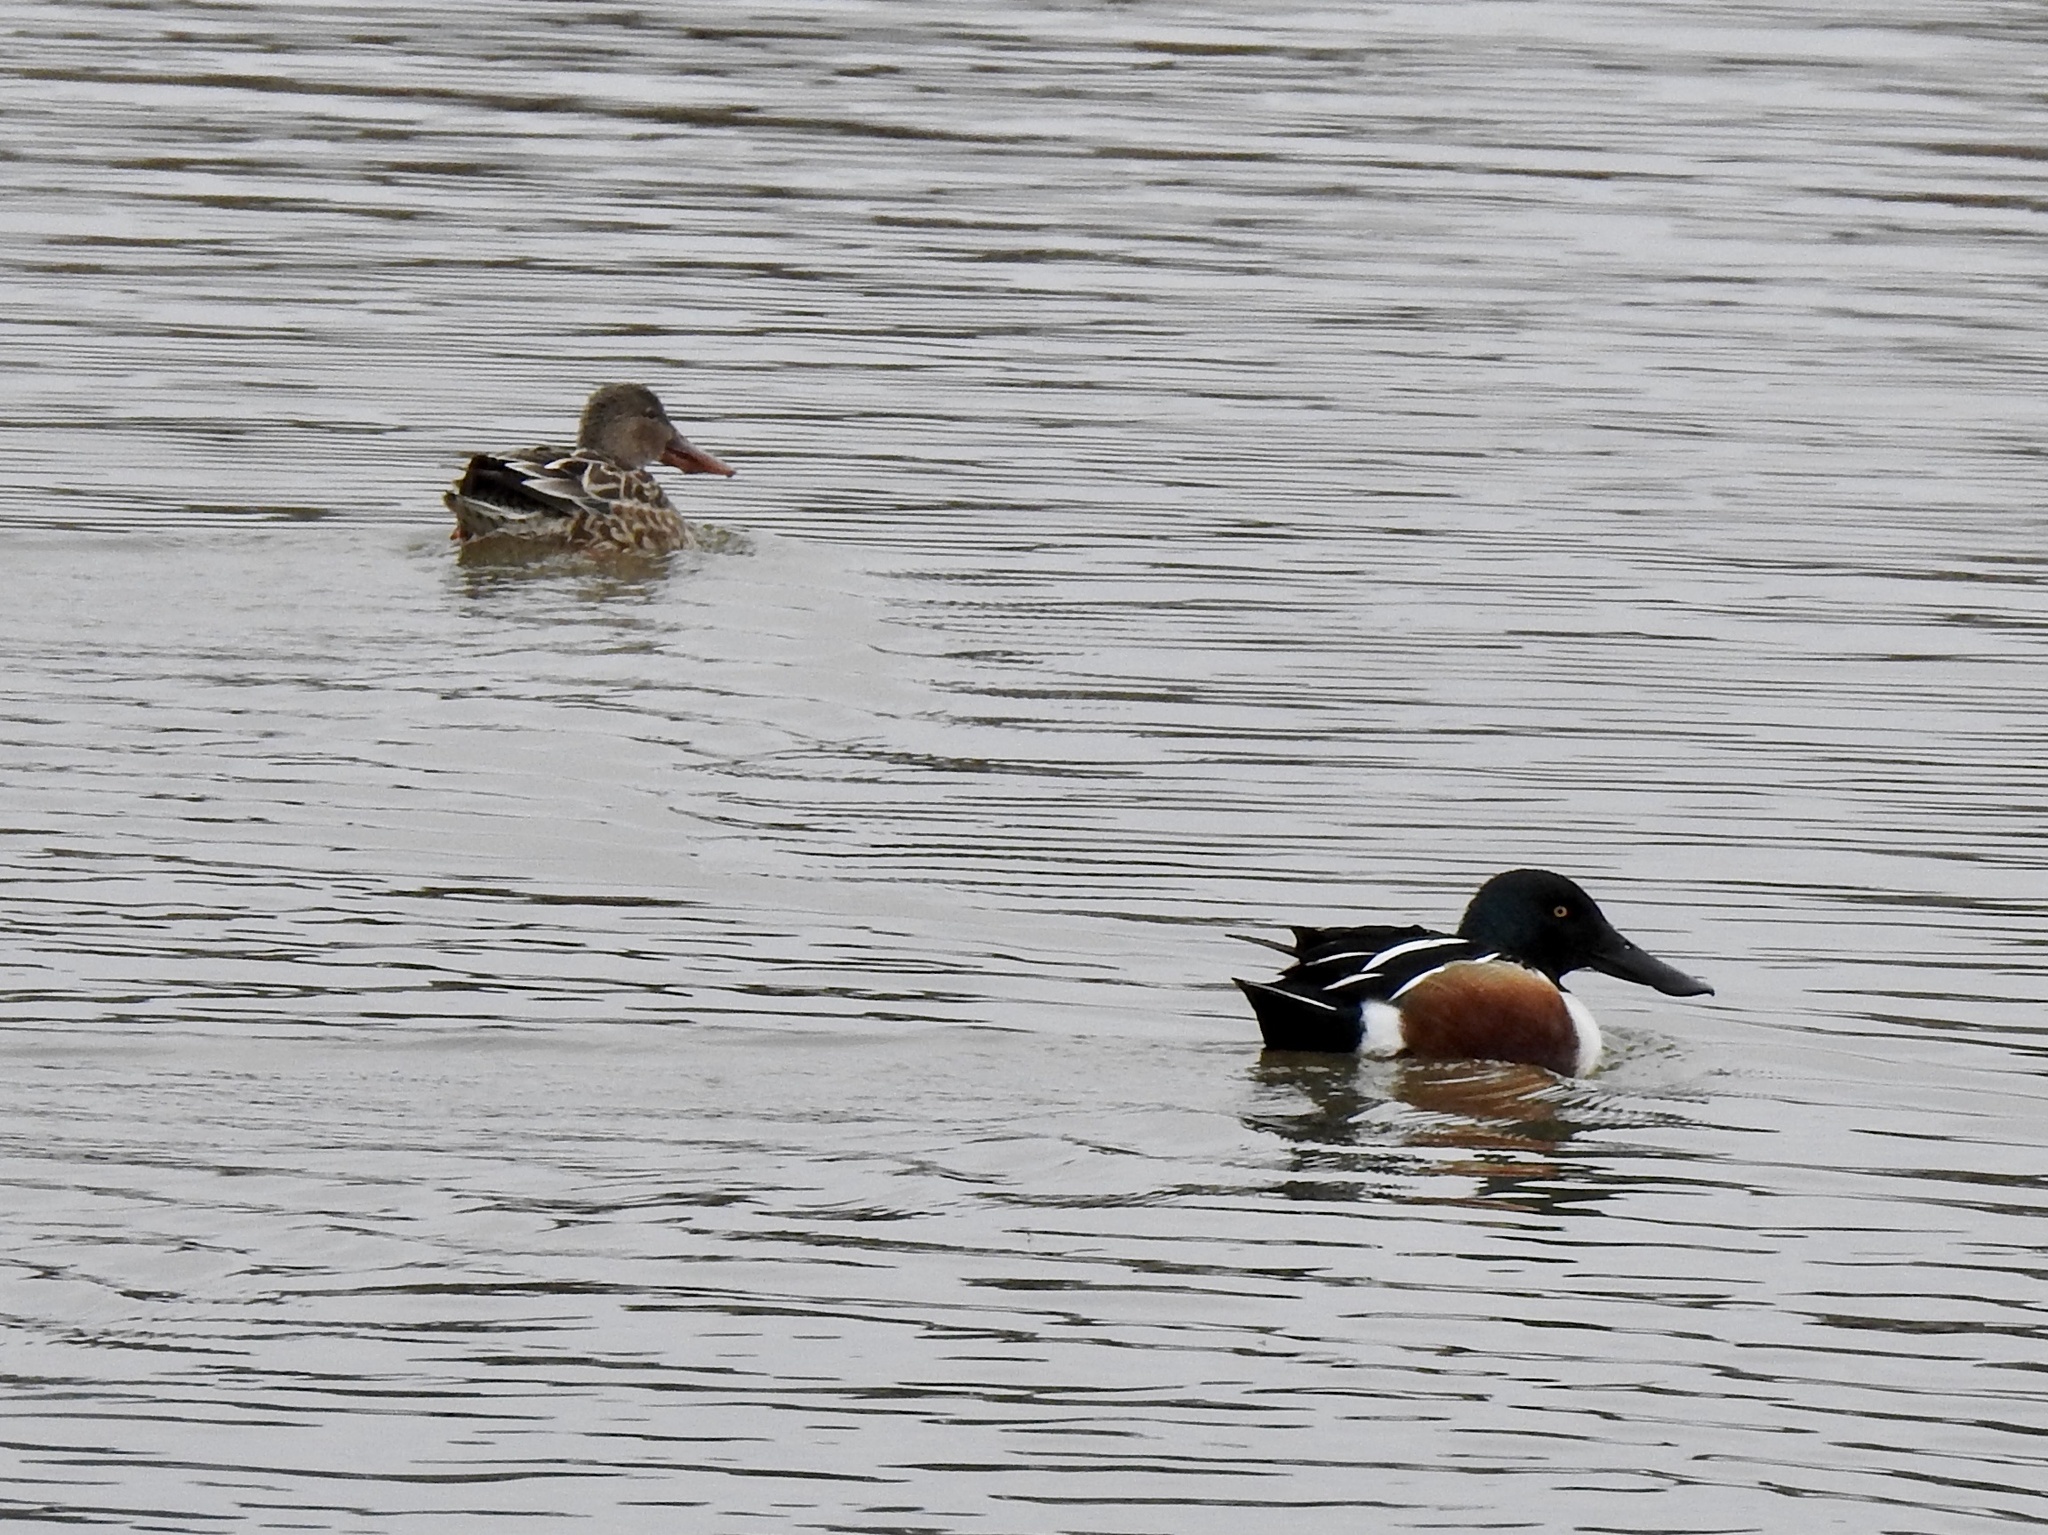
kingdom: Animalia
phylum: Chordata
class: Aves
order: Anseriformes
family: Anatidae
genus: Spatula
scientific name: Spatula clypeata
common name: Northern shoveler
